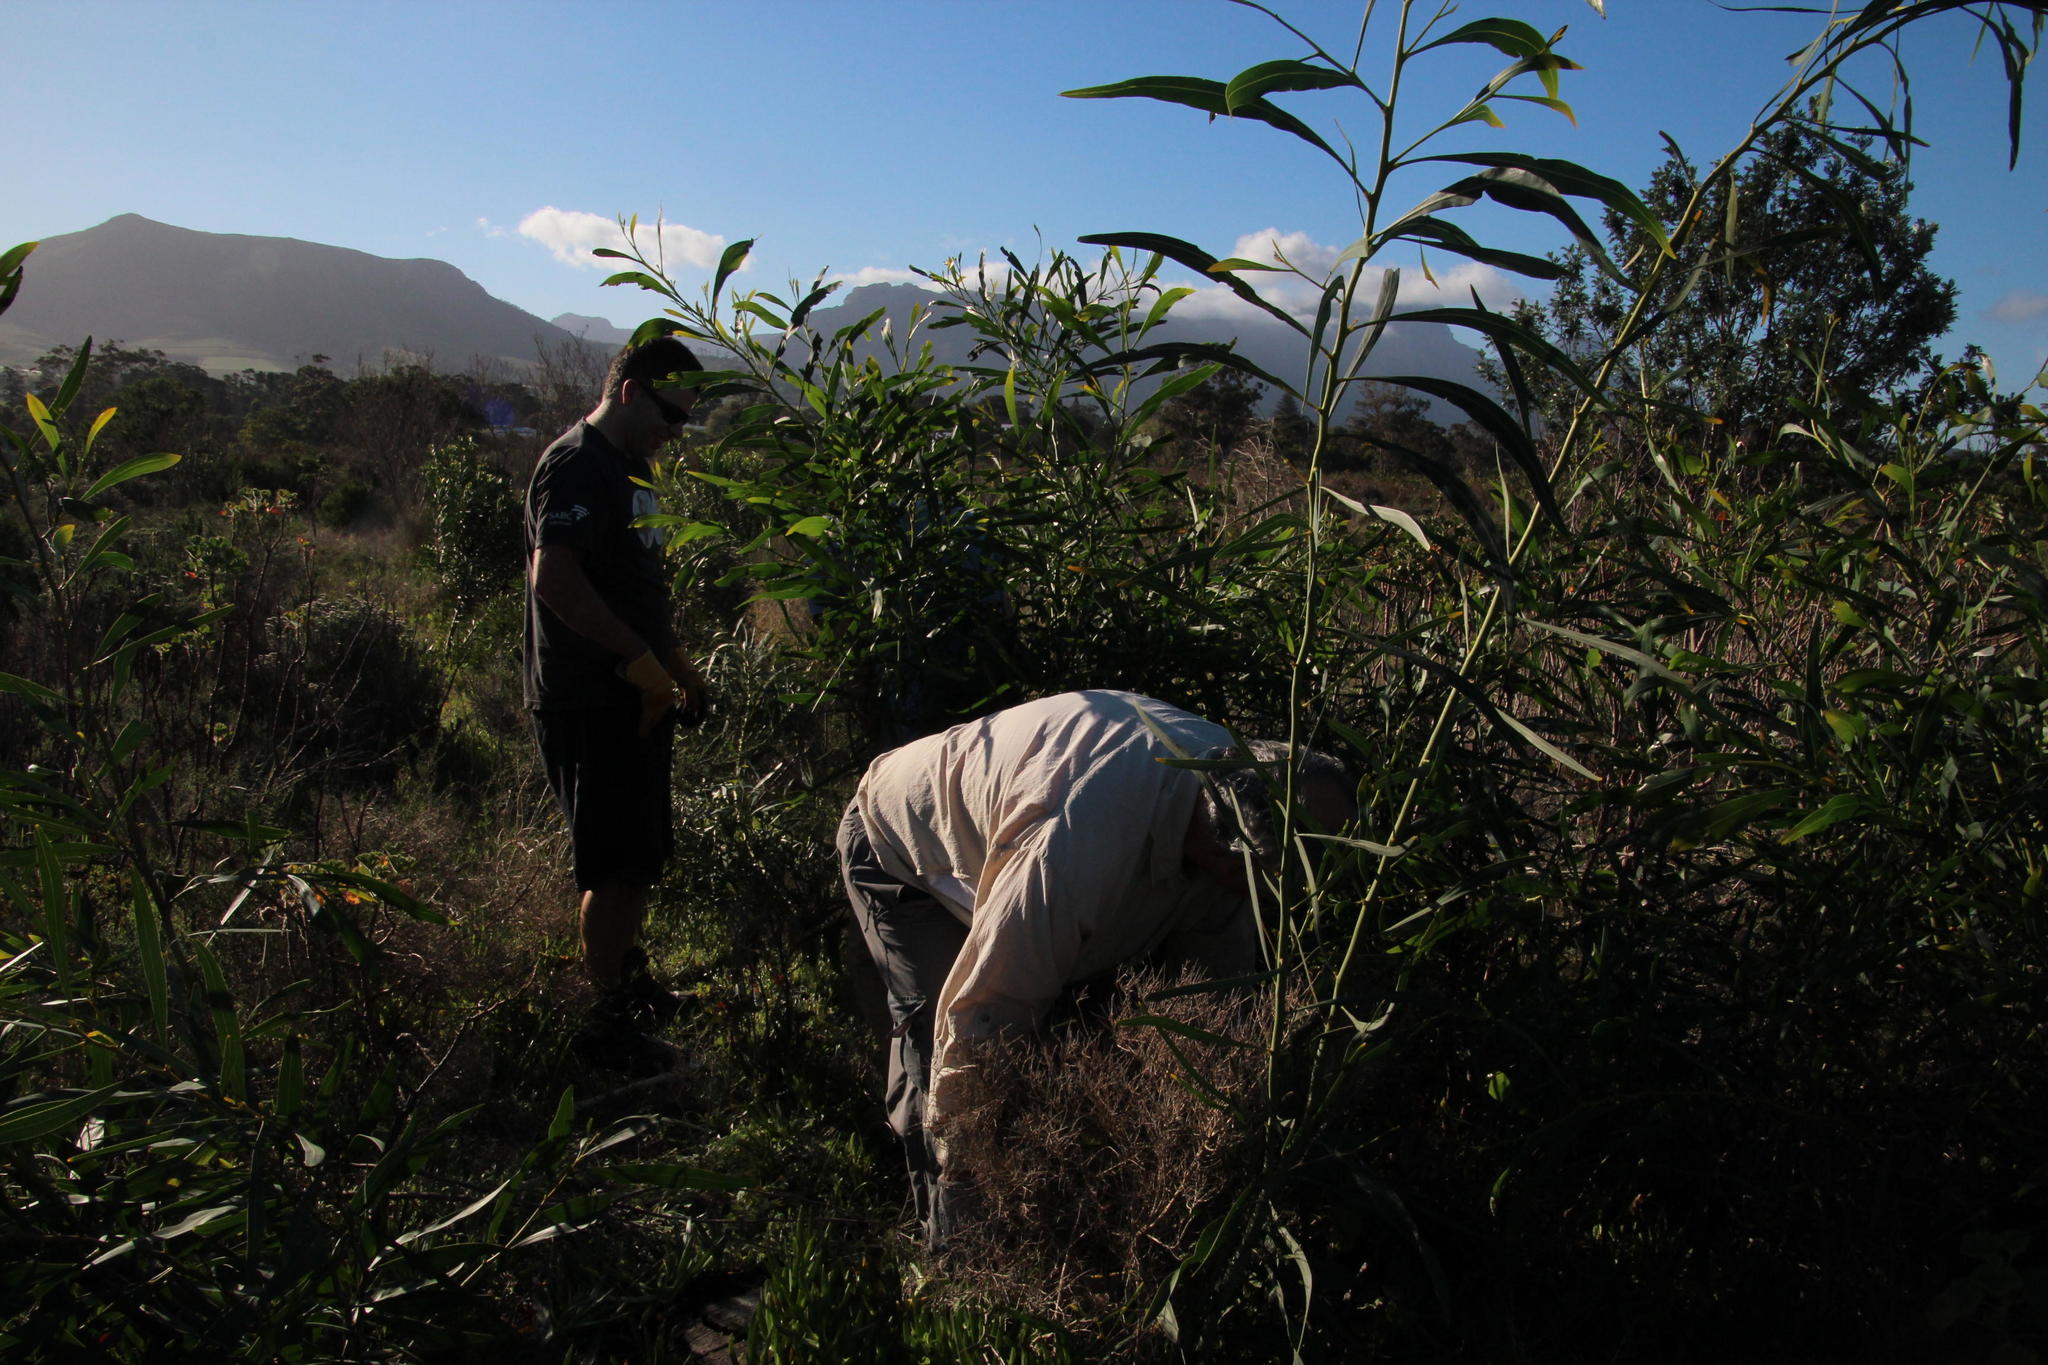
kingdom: Plantae
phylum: Tracheophyta
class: Magnoliopsida
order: Fabales
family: Fabaceae
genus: Acacia
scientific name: Acacia saligna
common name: Orange wattle
